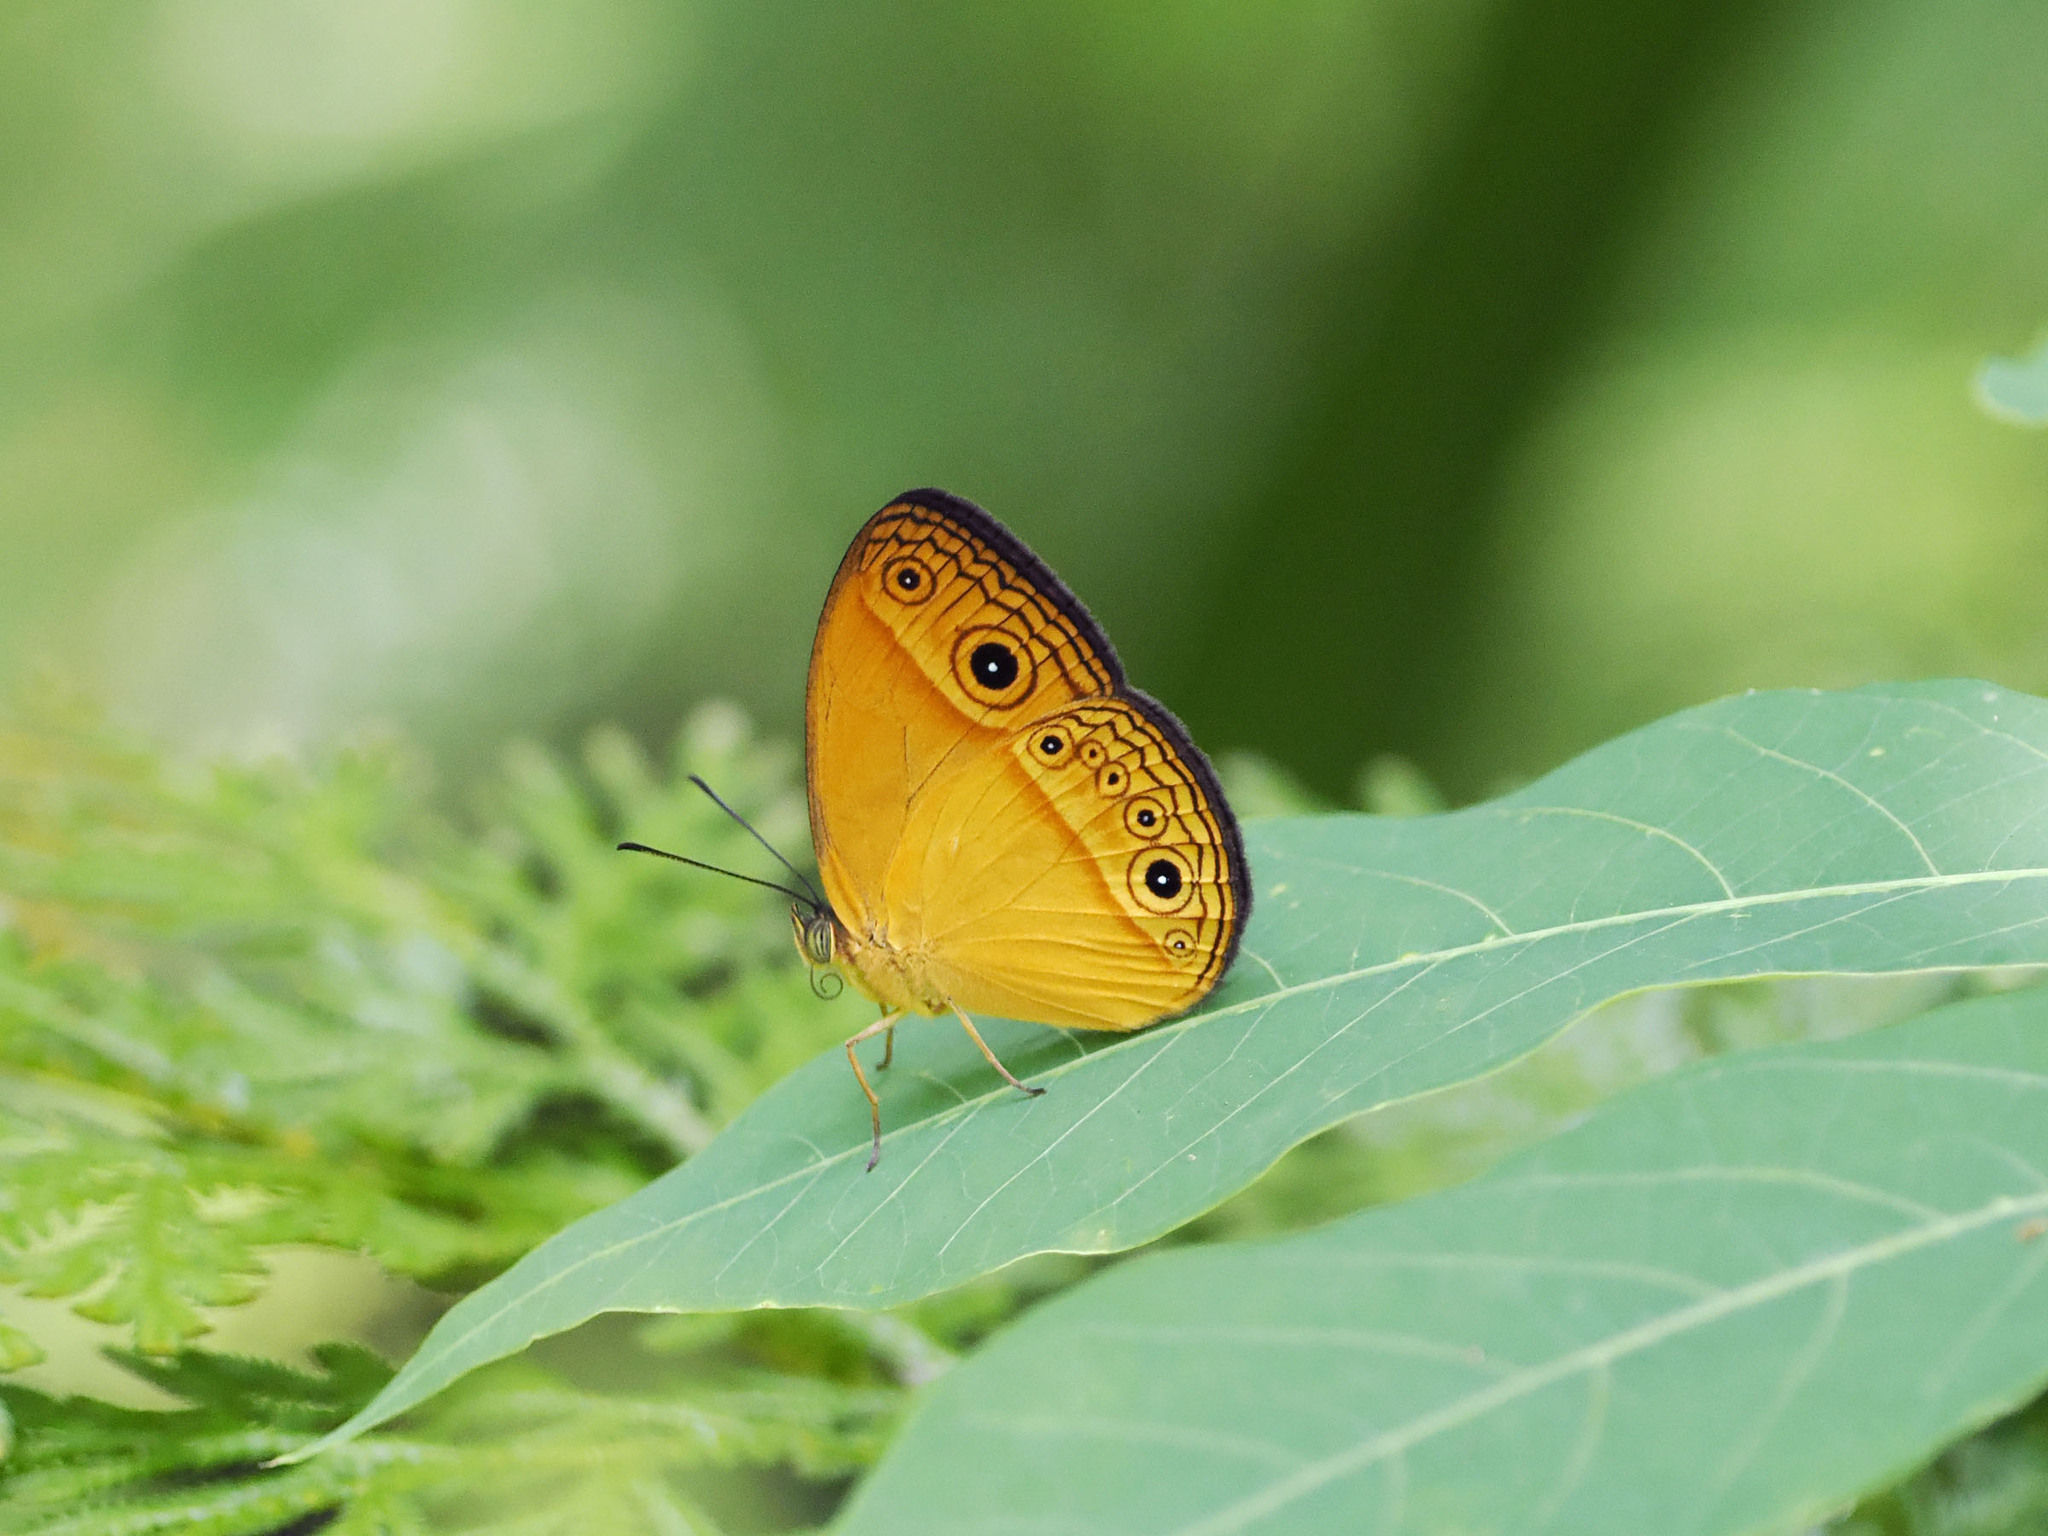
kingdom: Animalia
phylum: Arthropoda
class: Insecta
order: Lepidoptera
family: Nymphalidae
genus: Mycalesis
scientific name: Mycalesis phidon
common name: Hewitson's bushbrown
